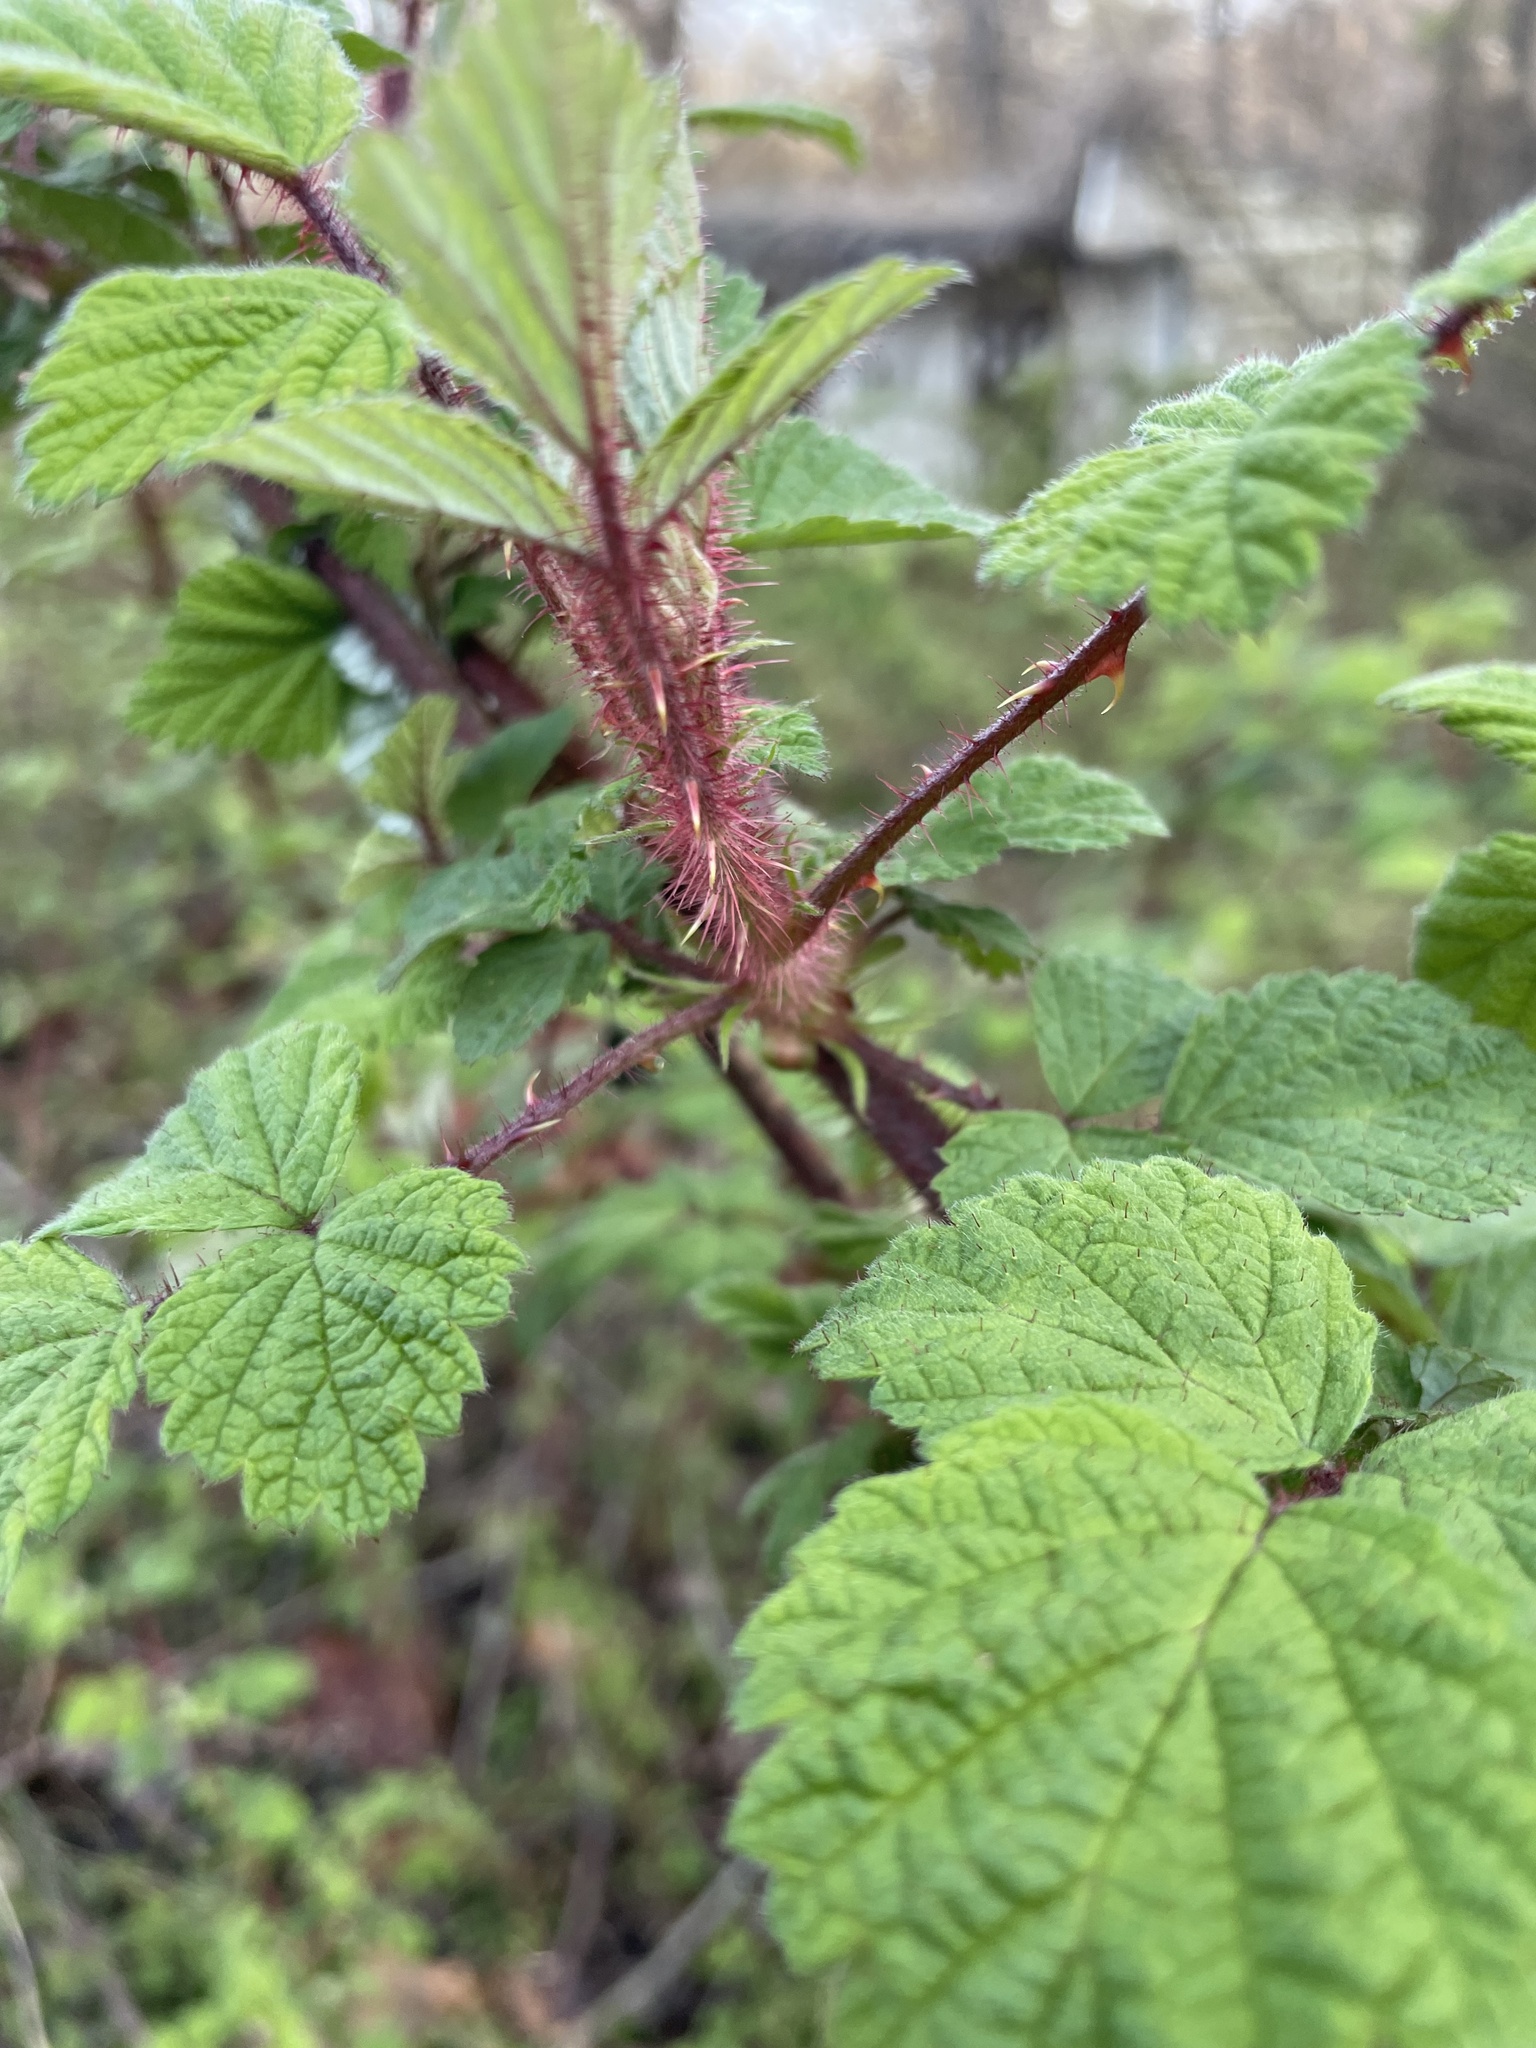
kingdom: Plantae
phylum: Tracheophyta
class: Magnoliopsida
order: Rosales
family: Rosaceae
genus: Rubus
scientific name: Rubus phoenicolasius
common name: Japanese wineberry
